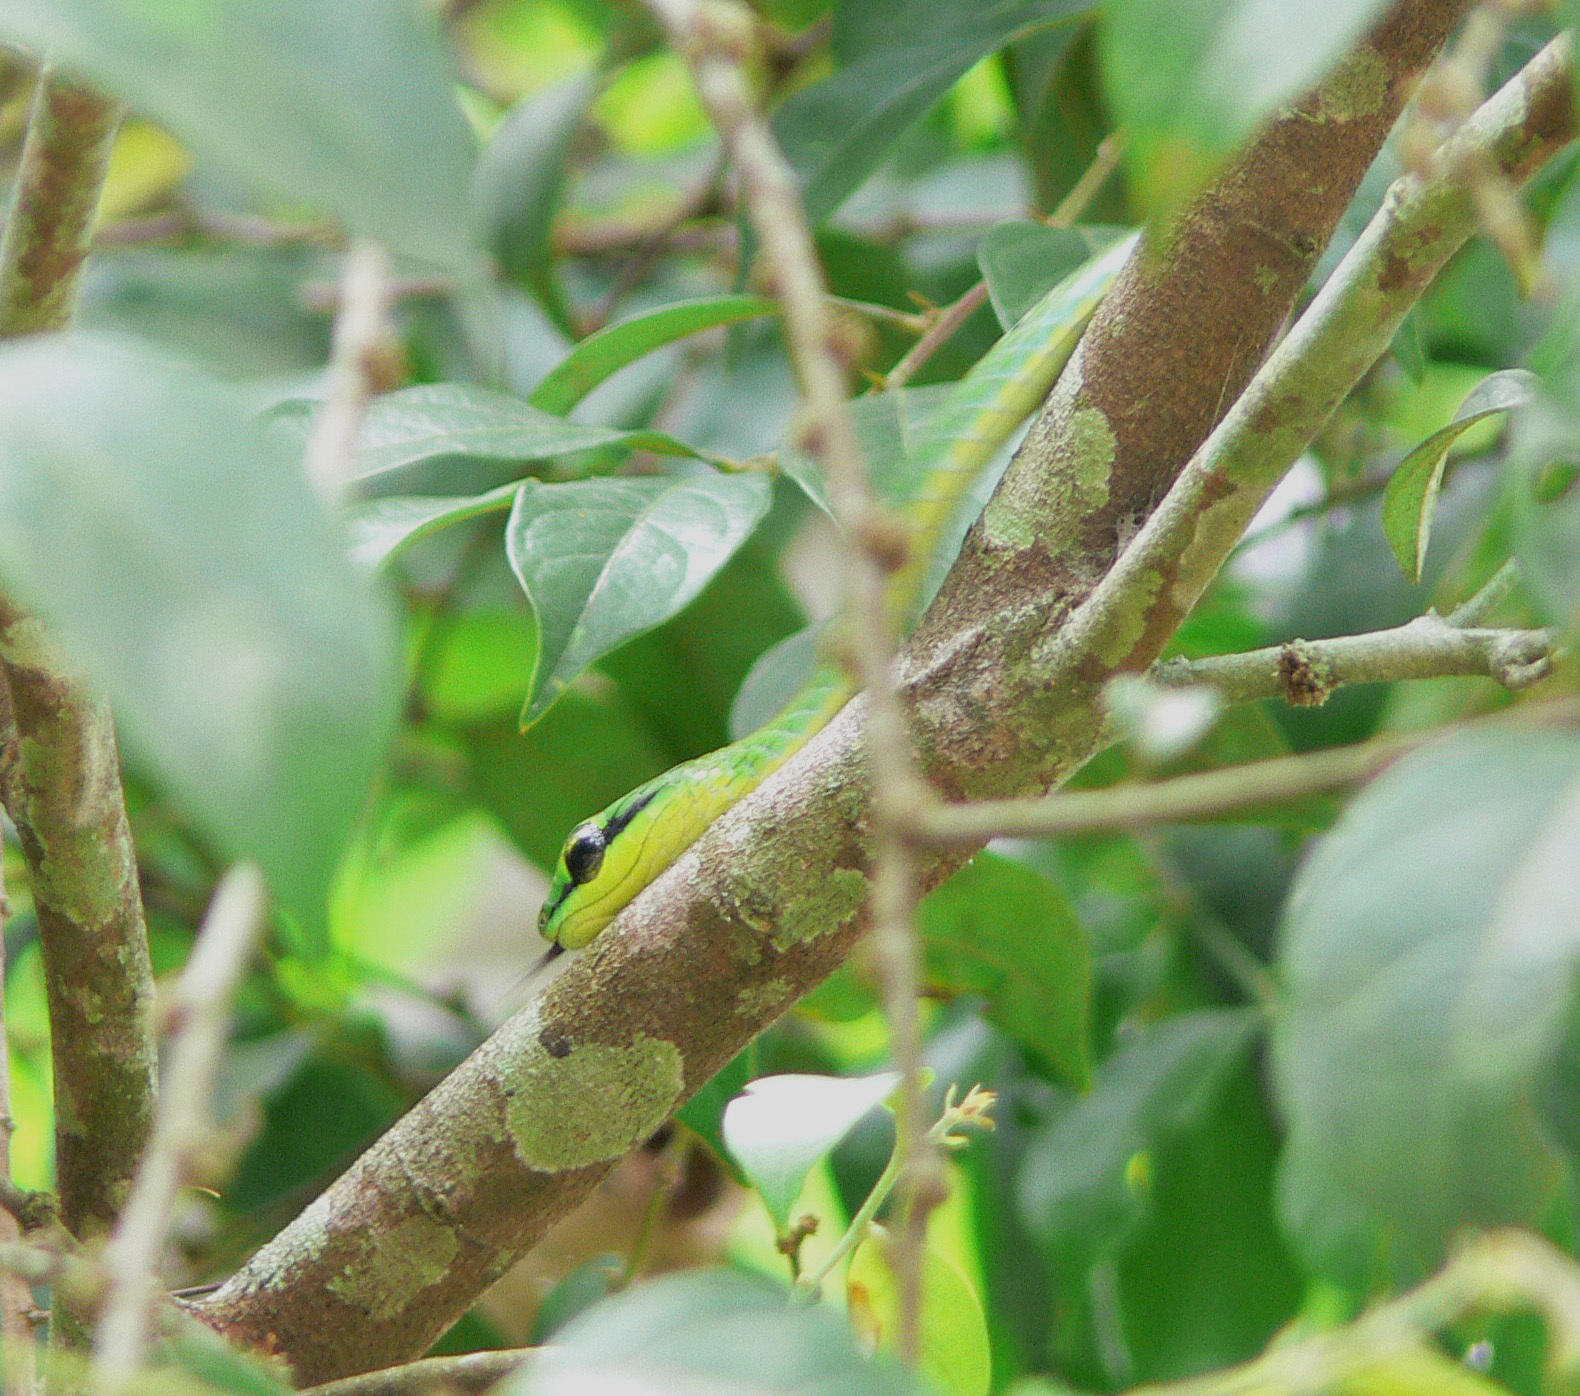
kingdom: Animalia
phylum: Chordata
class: Squamata
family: Colubridae
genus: Hapsidophrys
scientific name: Hapsidophrys smaragdinus
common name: Emerald snake
